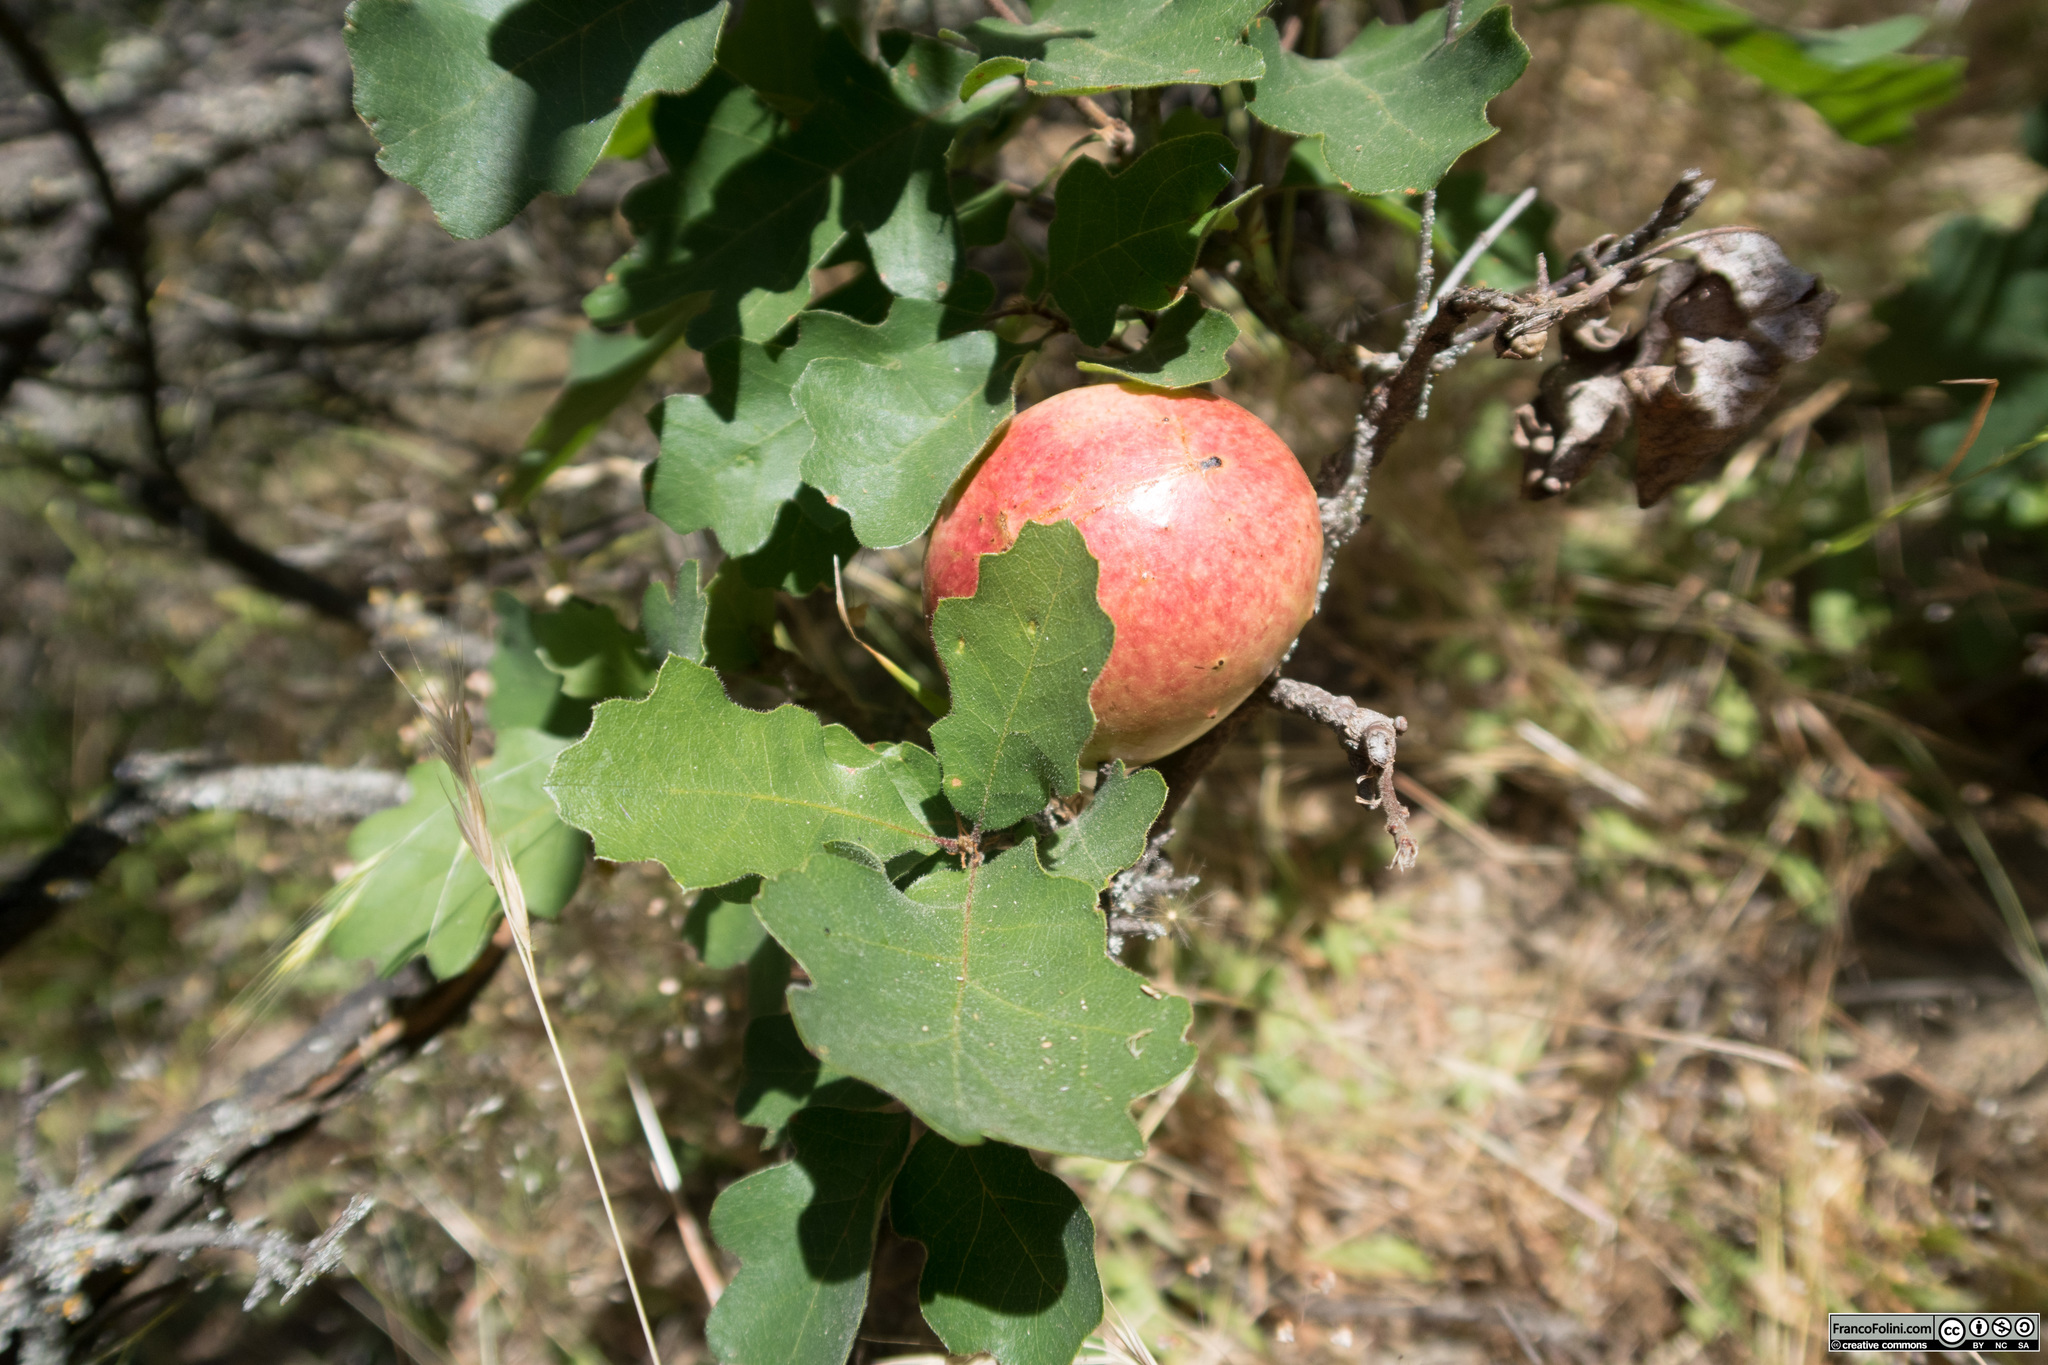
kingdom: Animalia
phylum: Arthropoda
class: Insecta
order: Hymenoptera
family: Cynipidae
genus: Andricus
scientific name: Andricus quercuscalifornicus
